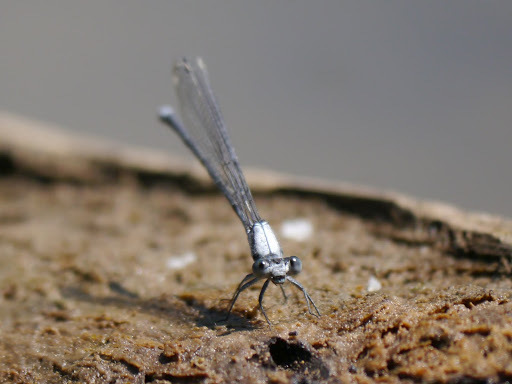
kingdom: Animalia
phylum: Arthropoda
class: Insecta
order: Odonata
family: Coenagrionidae
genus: Argia
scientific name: Argia moesta
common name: Powdered dancer
